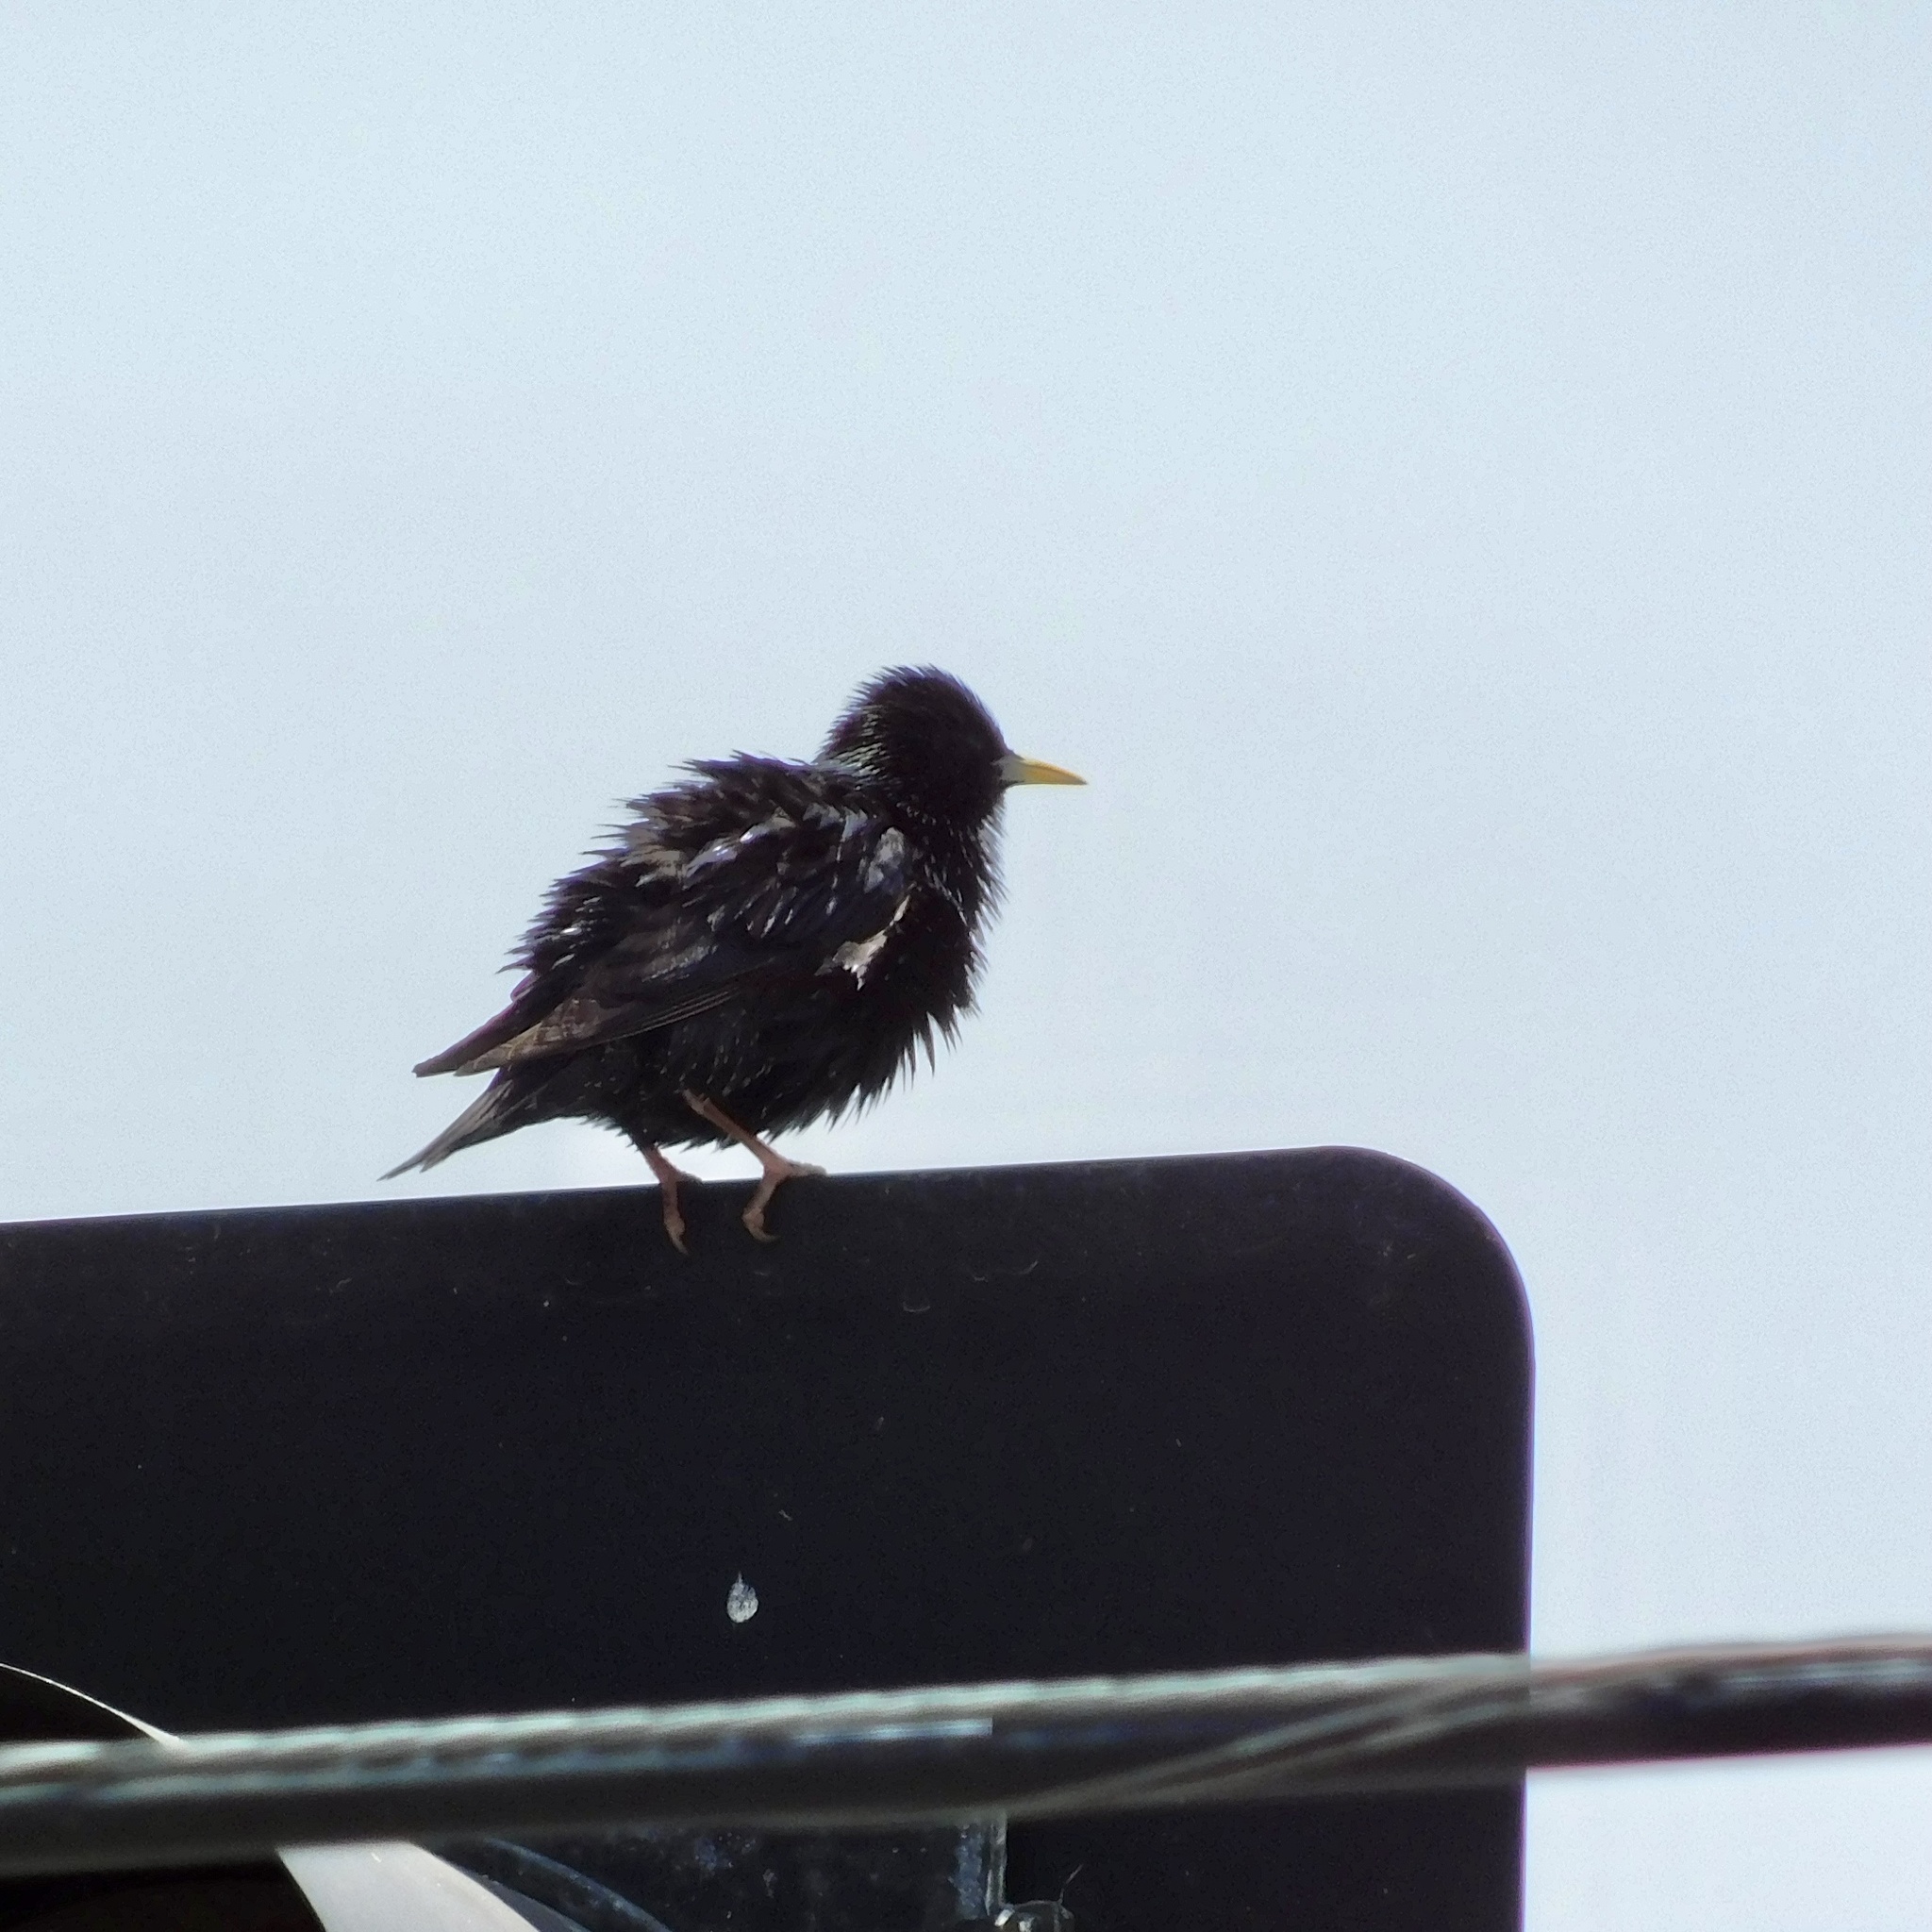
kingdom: Animalia
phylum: Chordata
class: Aves
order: Passeriformes
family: Sturnidae
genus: Sturnus
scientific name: Sturnus vulgaris
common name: Common starling
